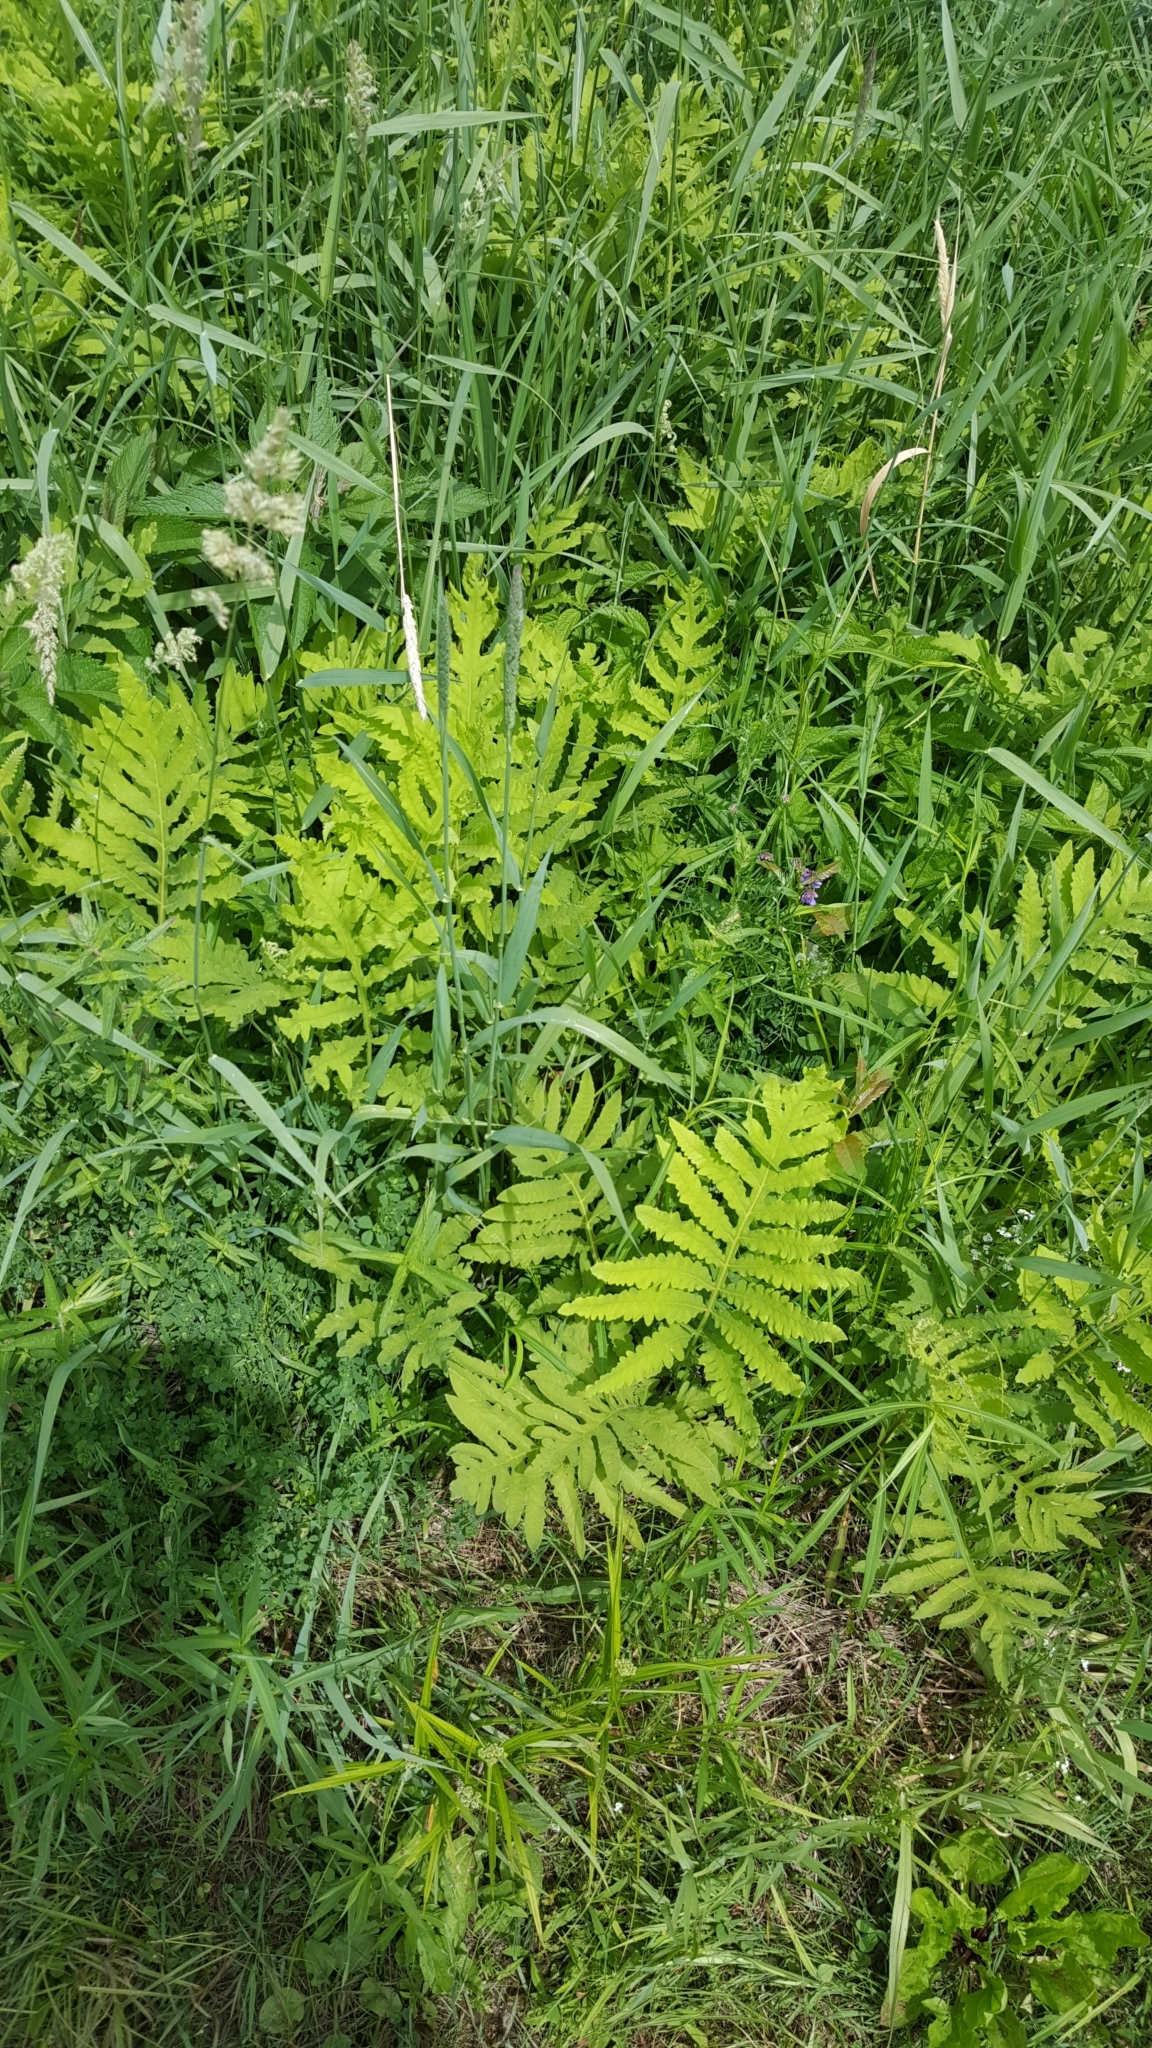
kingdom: Plantae
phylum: Tracheophyta
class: Polypodiopsida
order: Polypodiales
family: Onocleaceae
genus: Onoclea
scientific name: Onoclea sensibilis
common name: Sensitive fern
